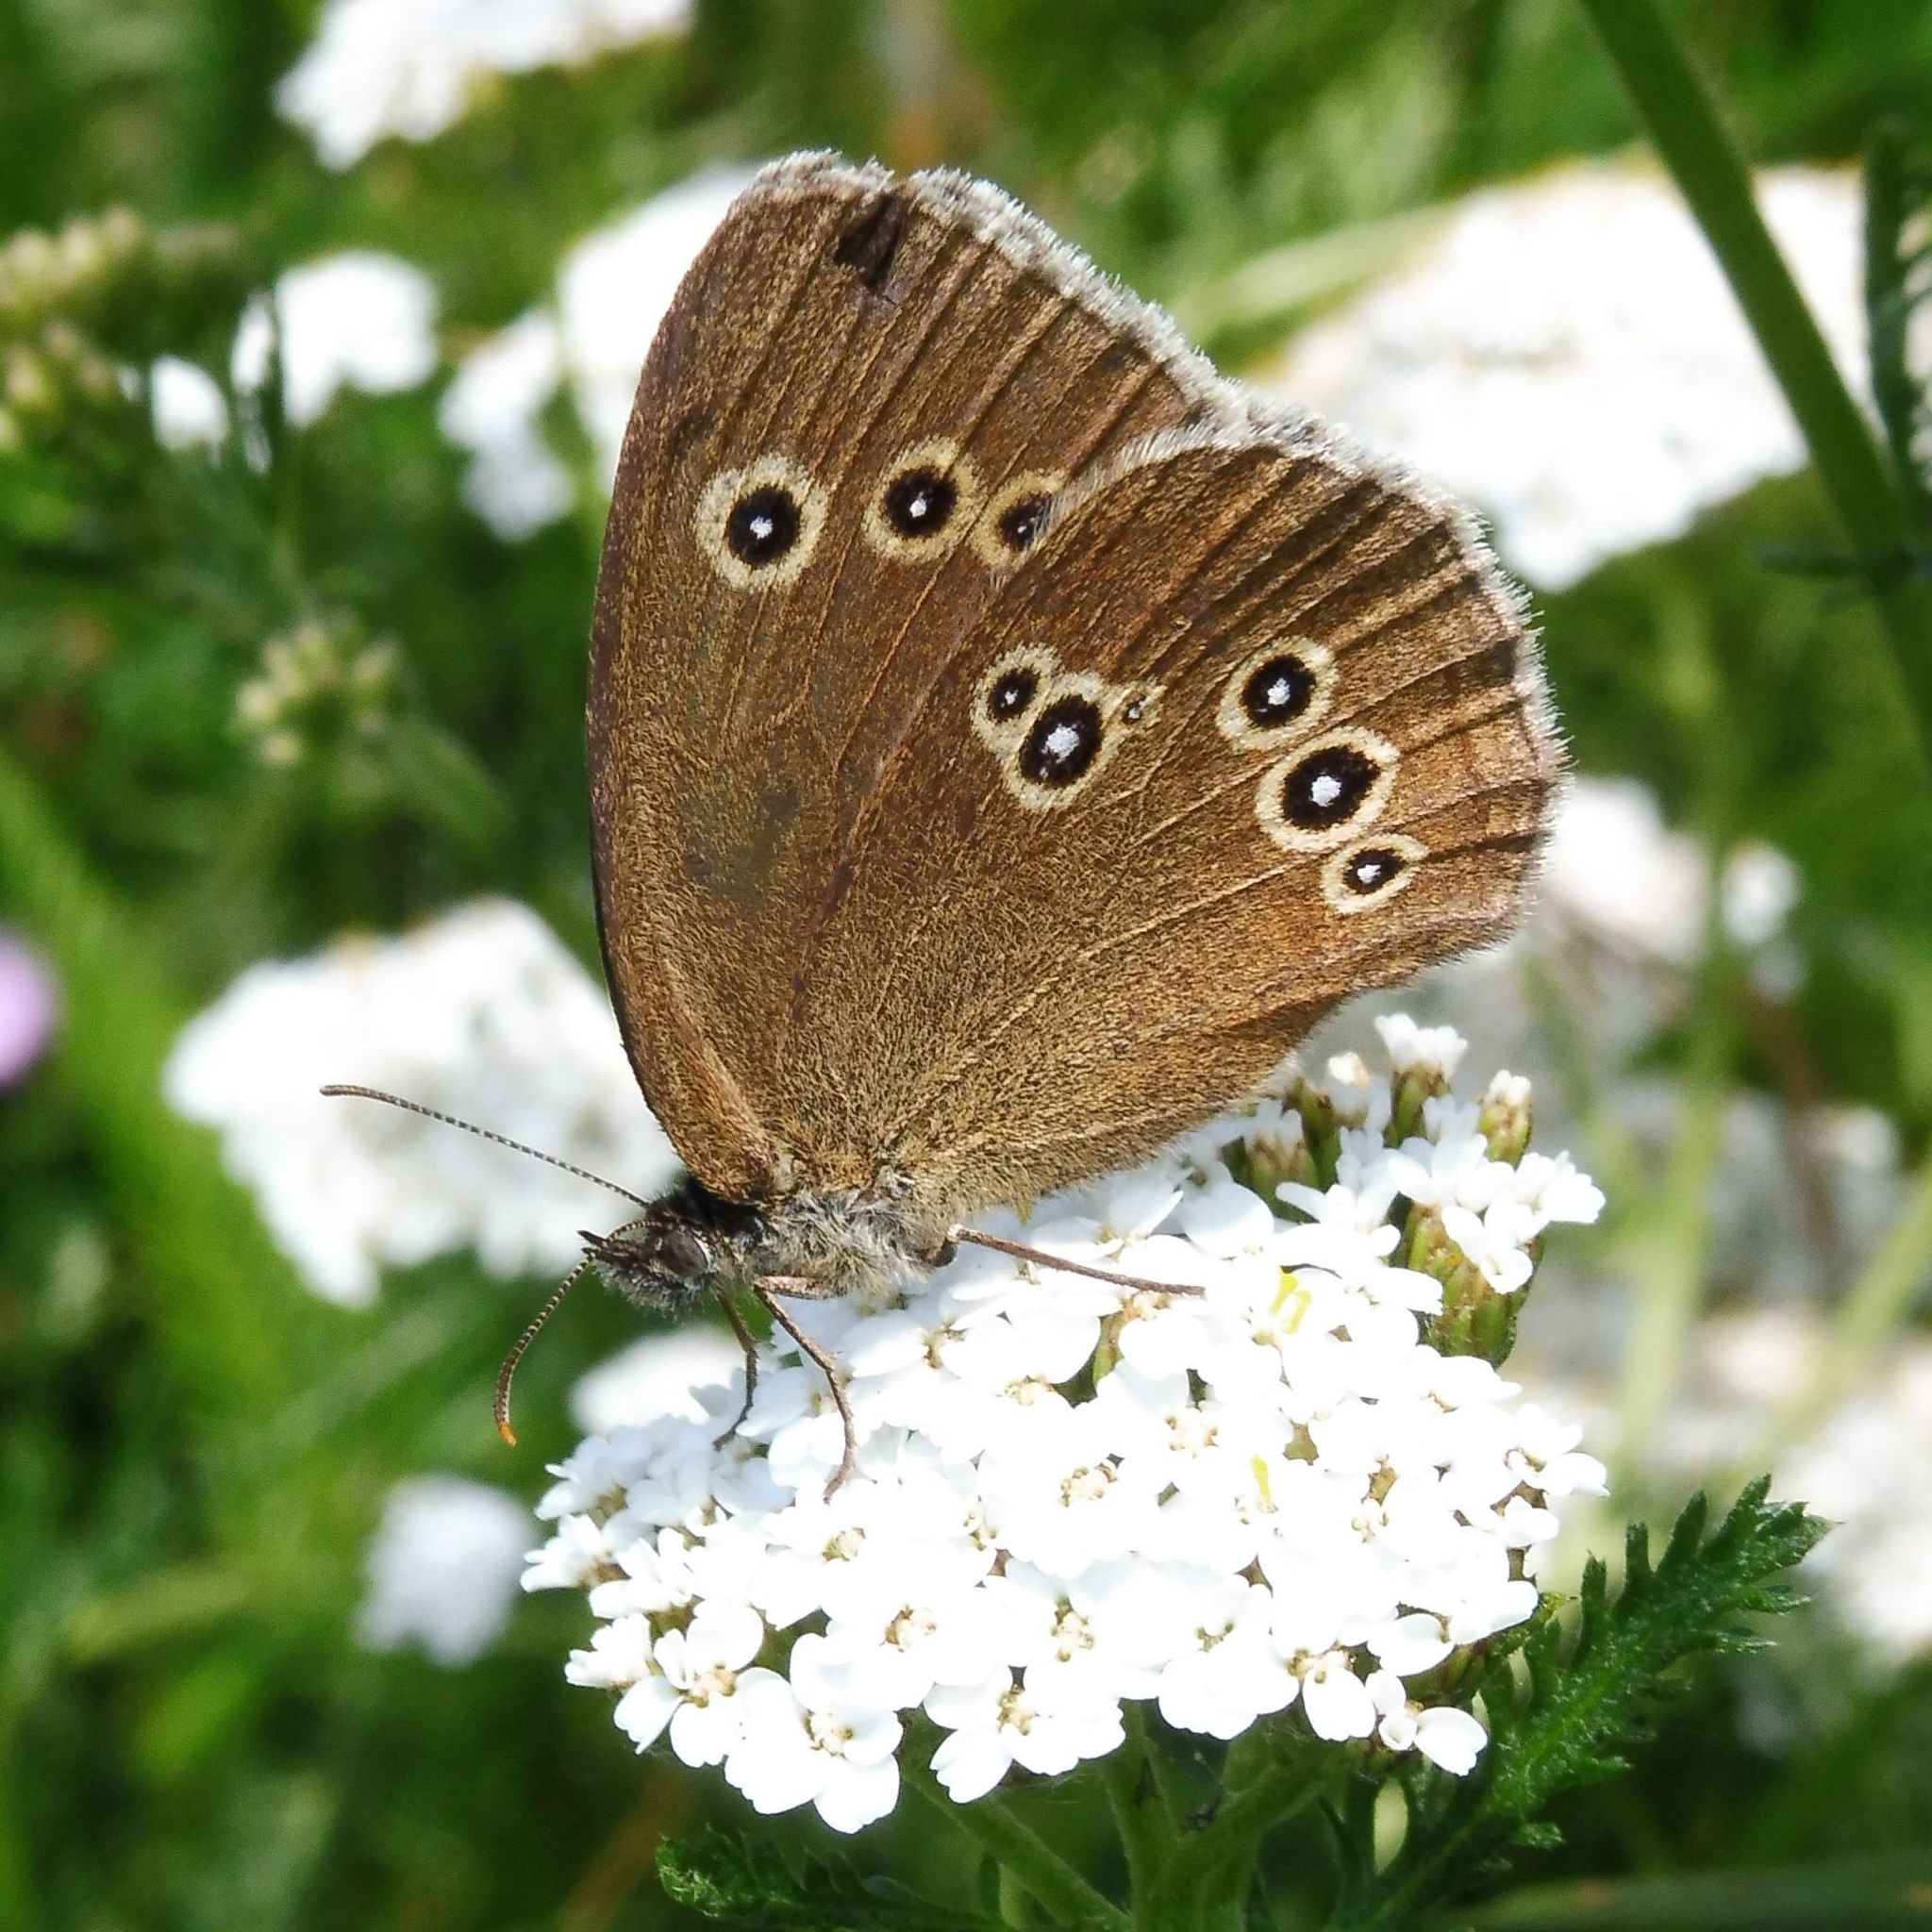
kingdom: Animalia
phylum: Arthropoda
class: Insecta
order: Lepidoptera
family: Nymphalidae
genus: Aphantopus
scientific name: Aphantopus hyperantus
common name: Ringlet
